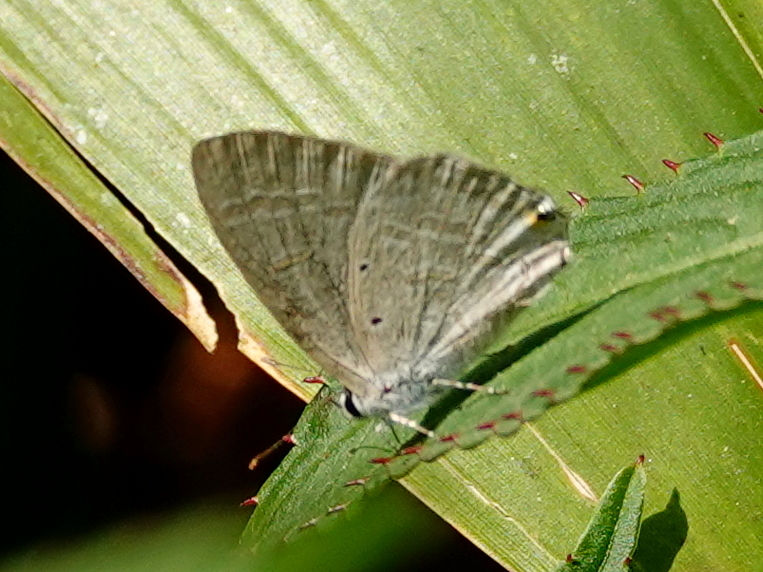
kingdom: Animalia
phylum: Arthropoda
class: Insecta
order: Lepidoptera
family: Lycaenidae
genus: Catochrysops
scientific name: Catochrysops strabo
